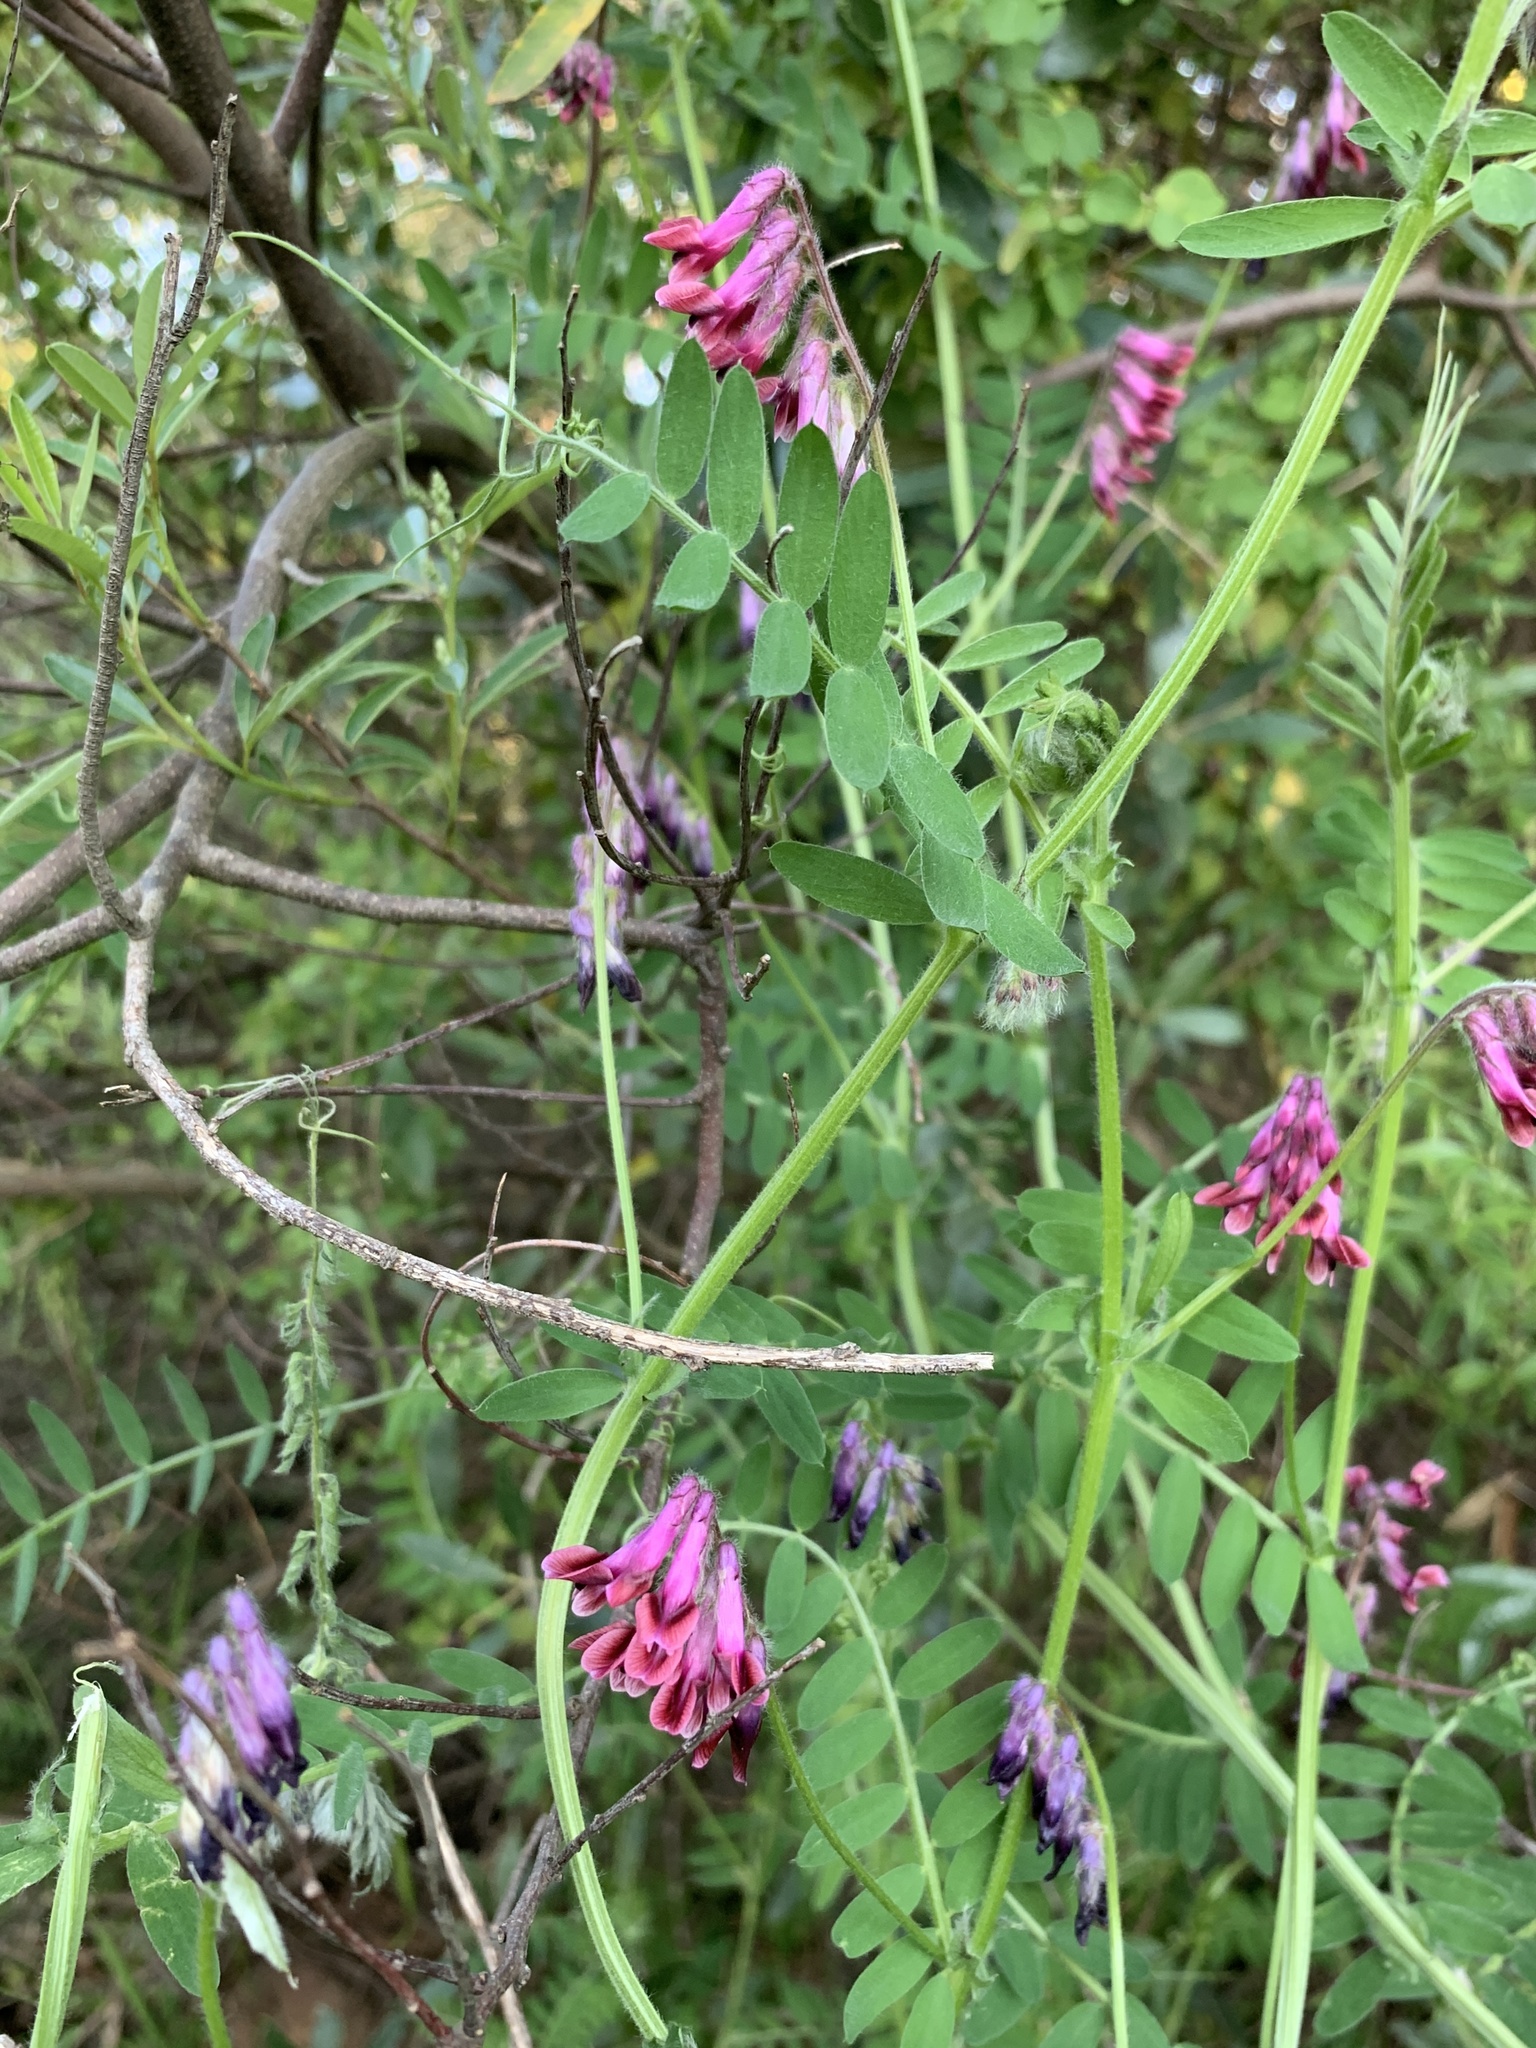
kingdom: Plantae
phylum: Tracheophyta
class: Magnoliopsida
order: Fabales
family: Fabaceae
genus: Vicia
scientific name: Vicia benghalensis
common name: Purple vetch
